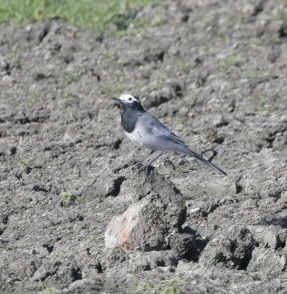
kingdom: Animalia
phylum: Chordata
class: Aves
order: Passeriformes
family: Motacillidae
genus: Motacilla
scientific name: Motacilla alba
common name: White wagtail
